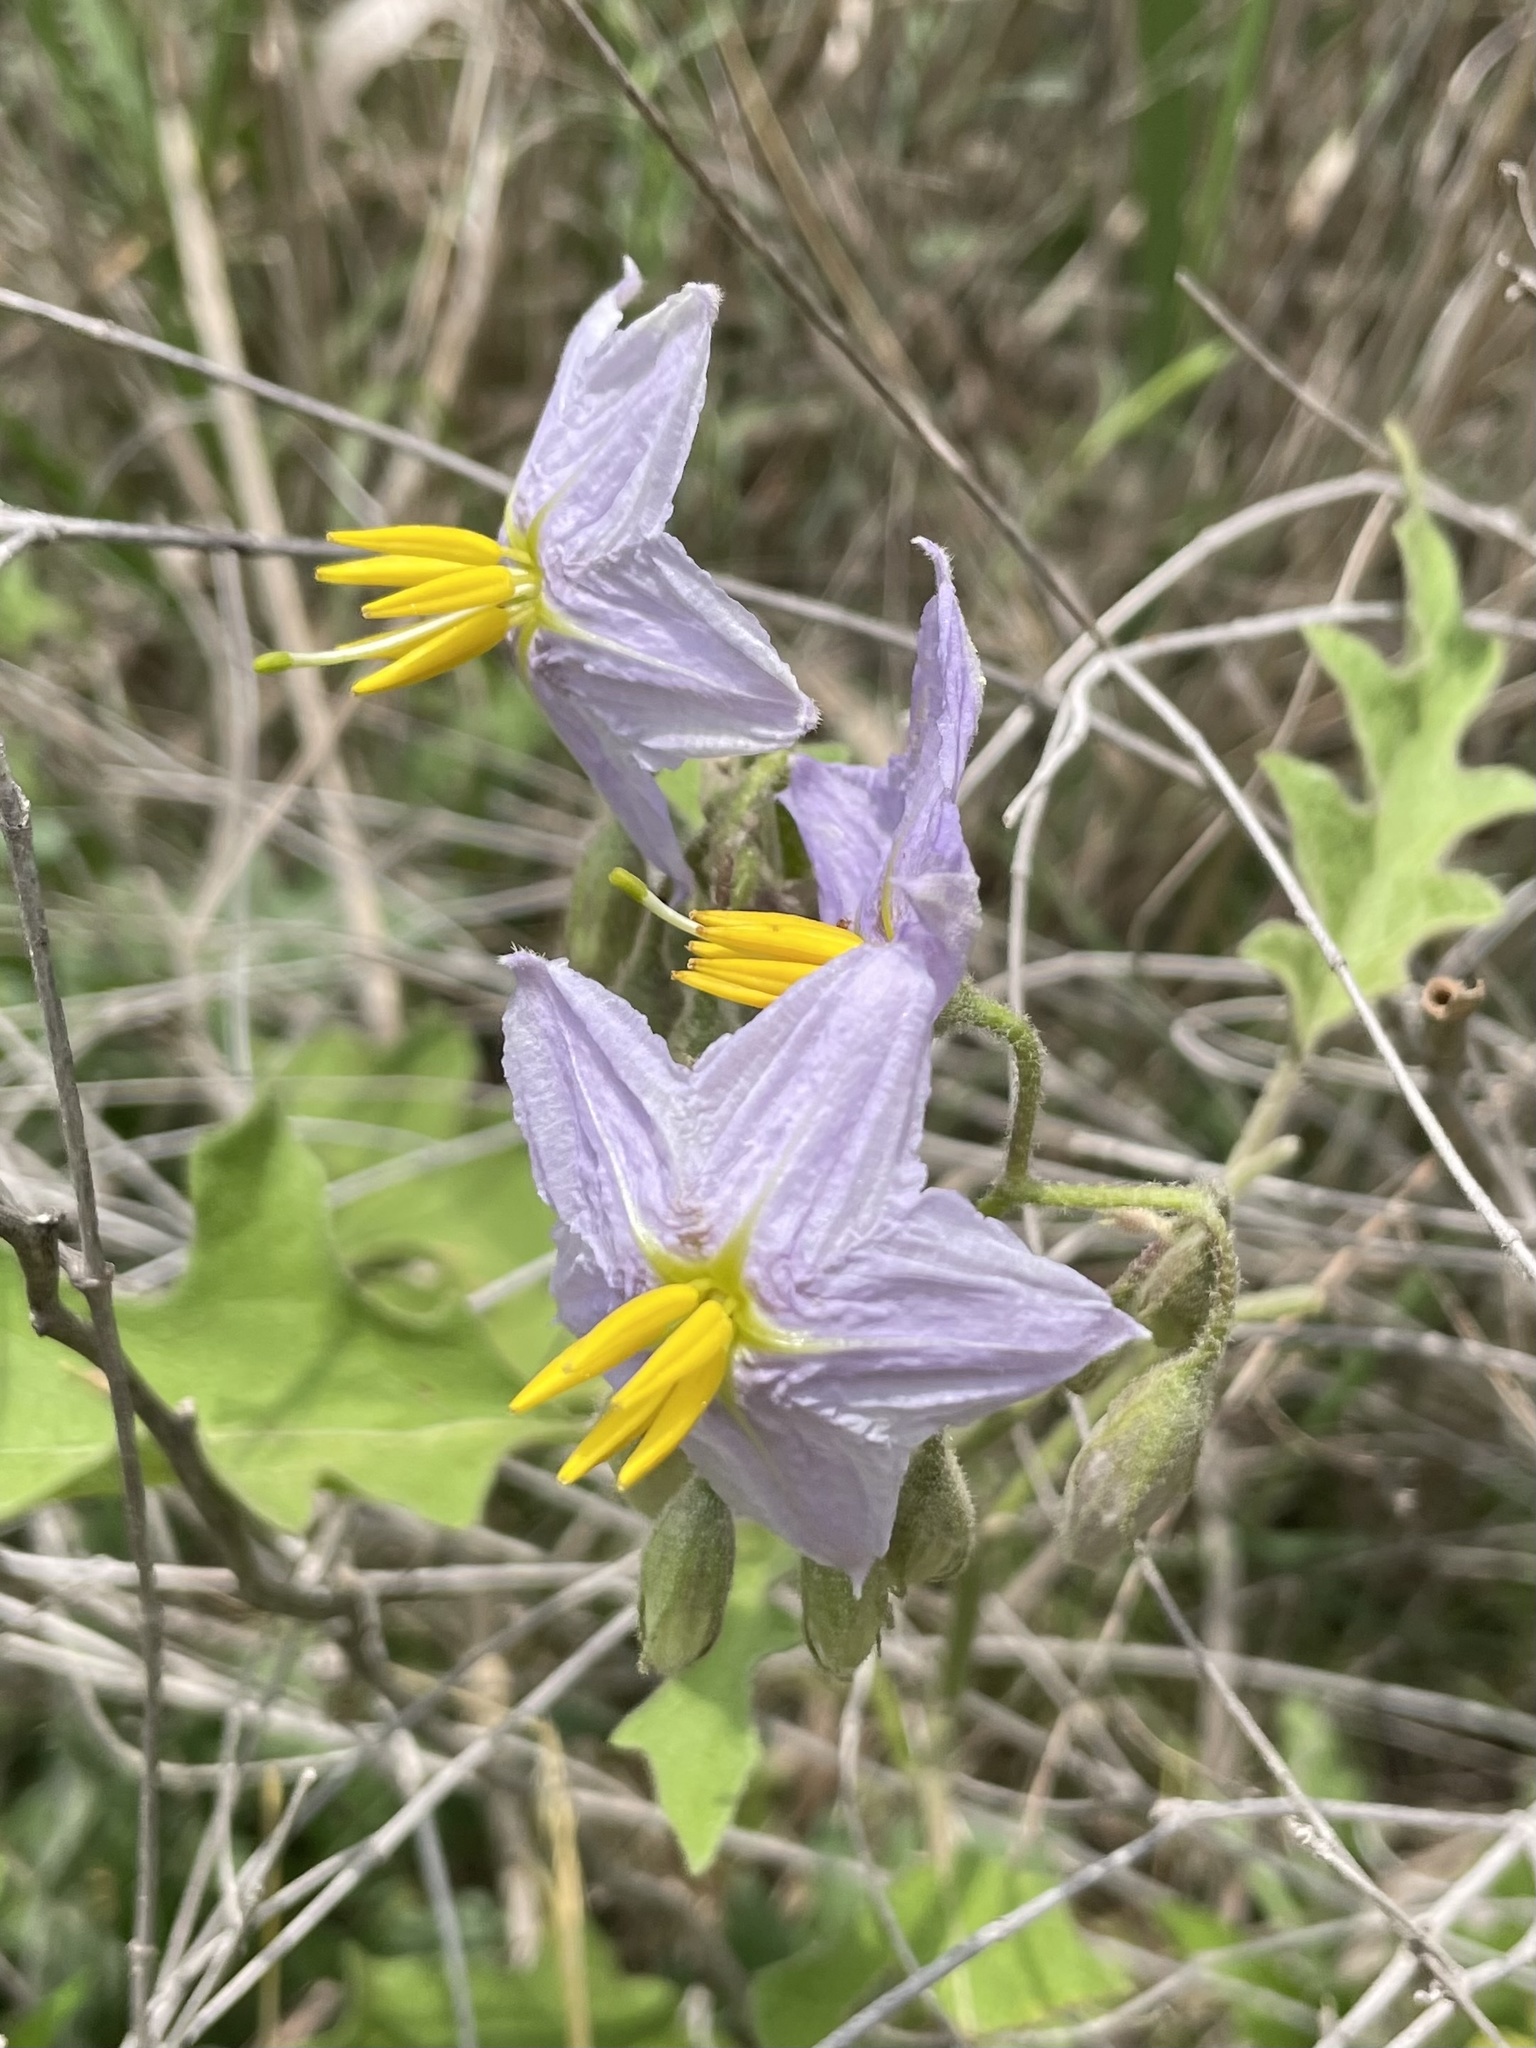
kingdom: Plantae
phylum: Tracheophyta
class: Magnoliopsida
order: Solanales
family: Solanaceae
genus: Solanum
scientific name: Solanum dimidiatum
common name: Carolina horse-nettle
